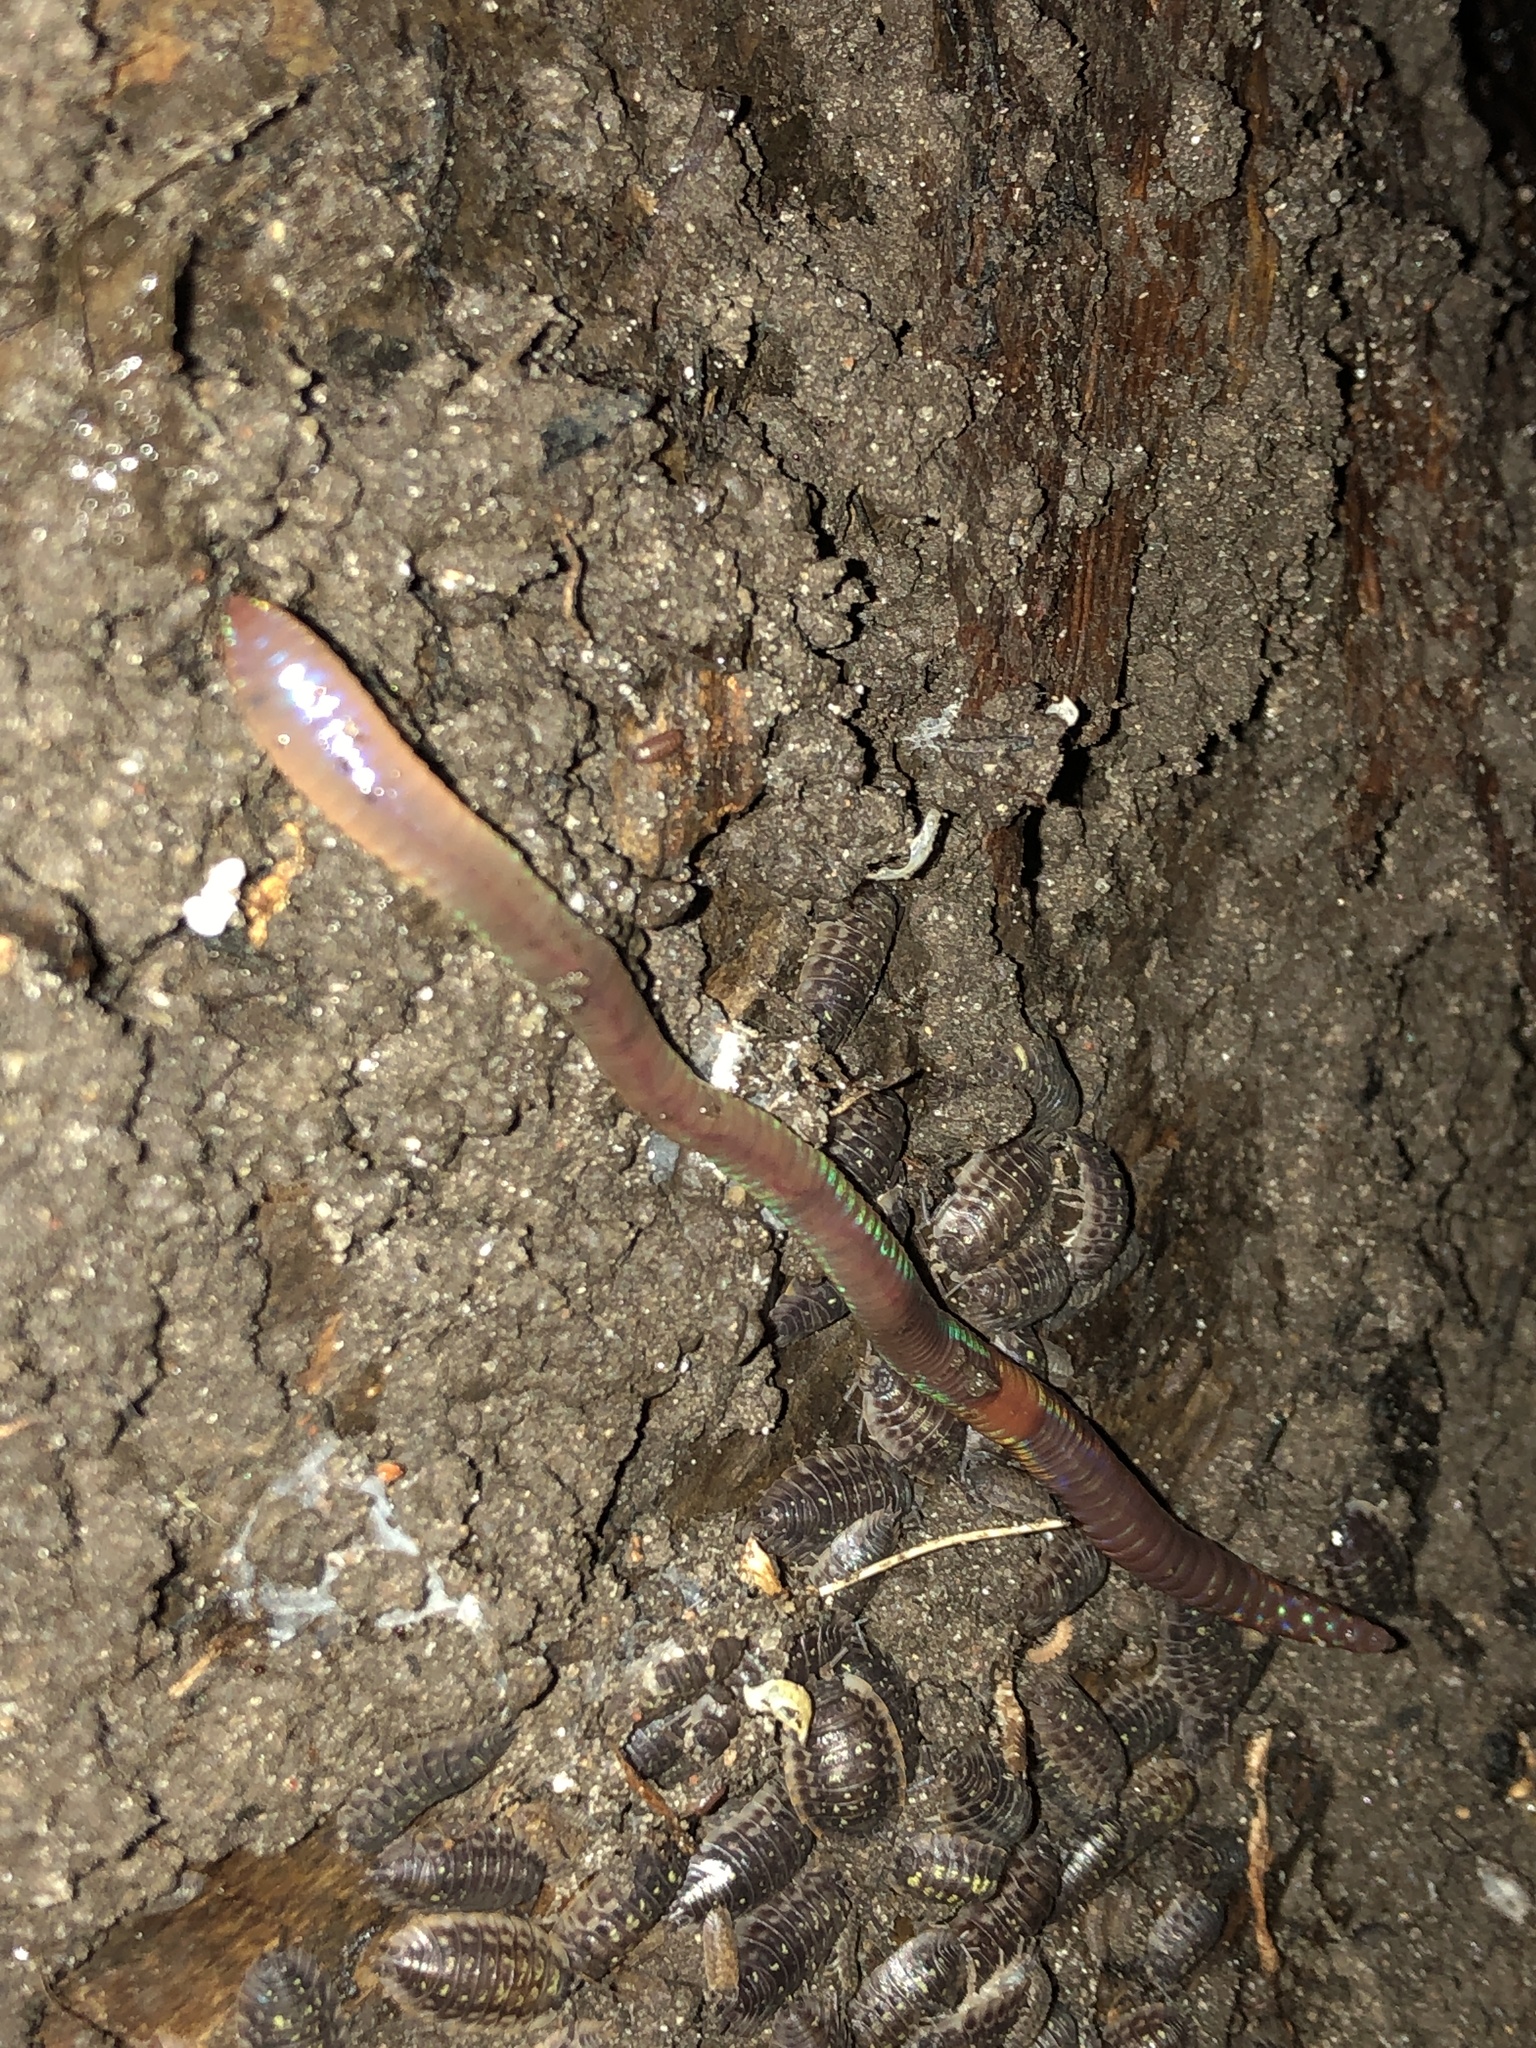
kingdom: Animalia
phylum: Annelida
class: Clitellata
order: Crassiclitellata
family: Lumbricidae
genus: Lumbricus
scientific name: Lumbricus terrestris
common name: Common earthworm
